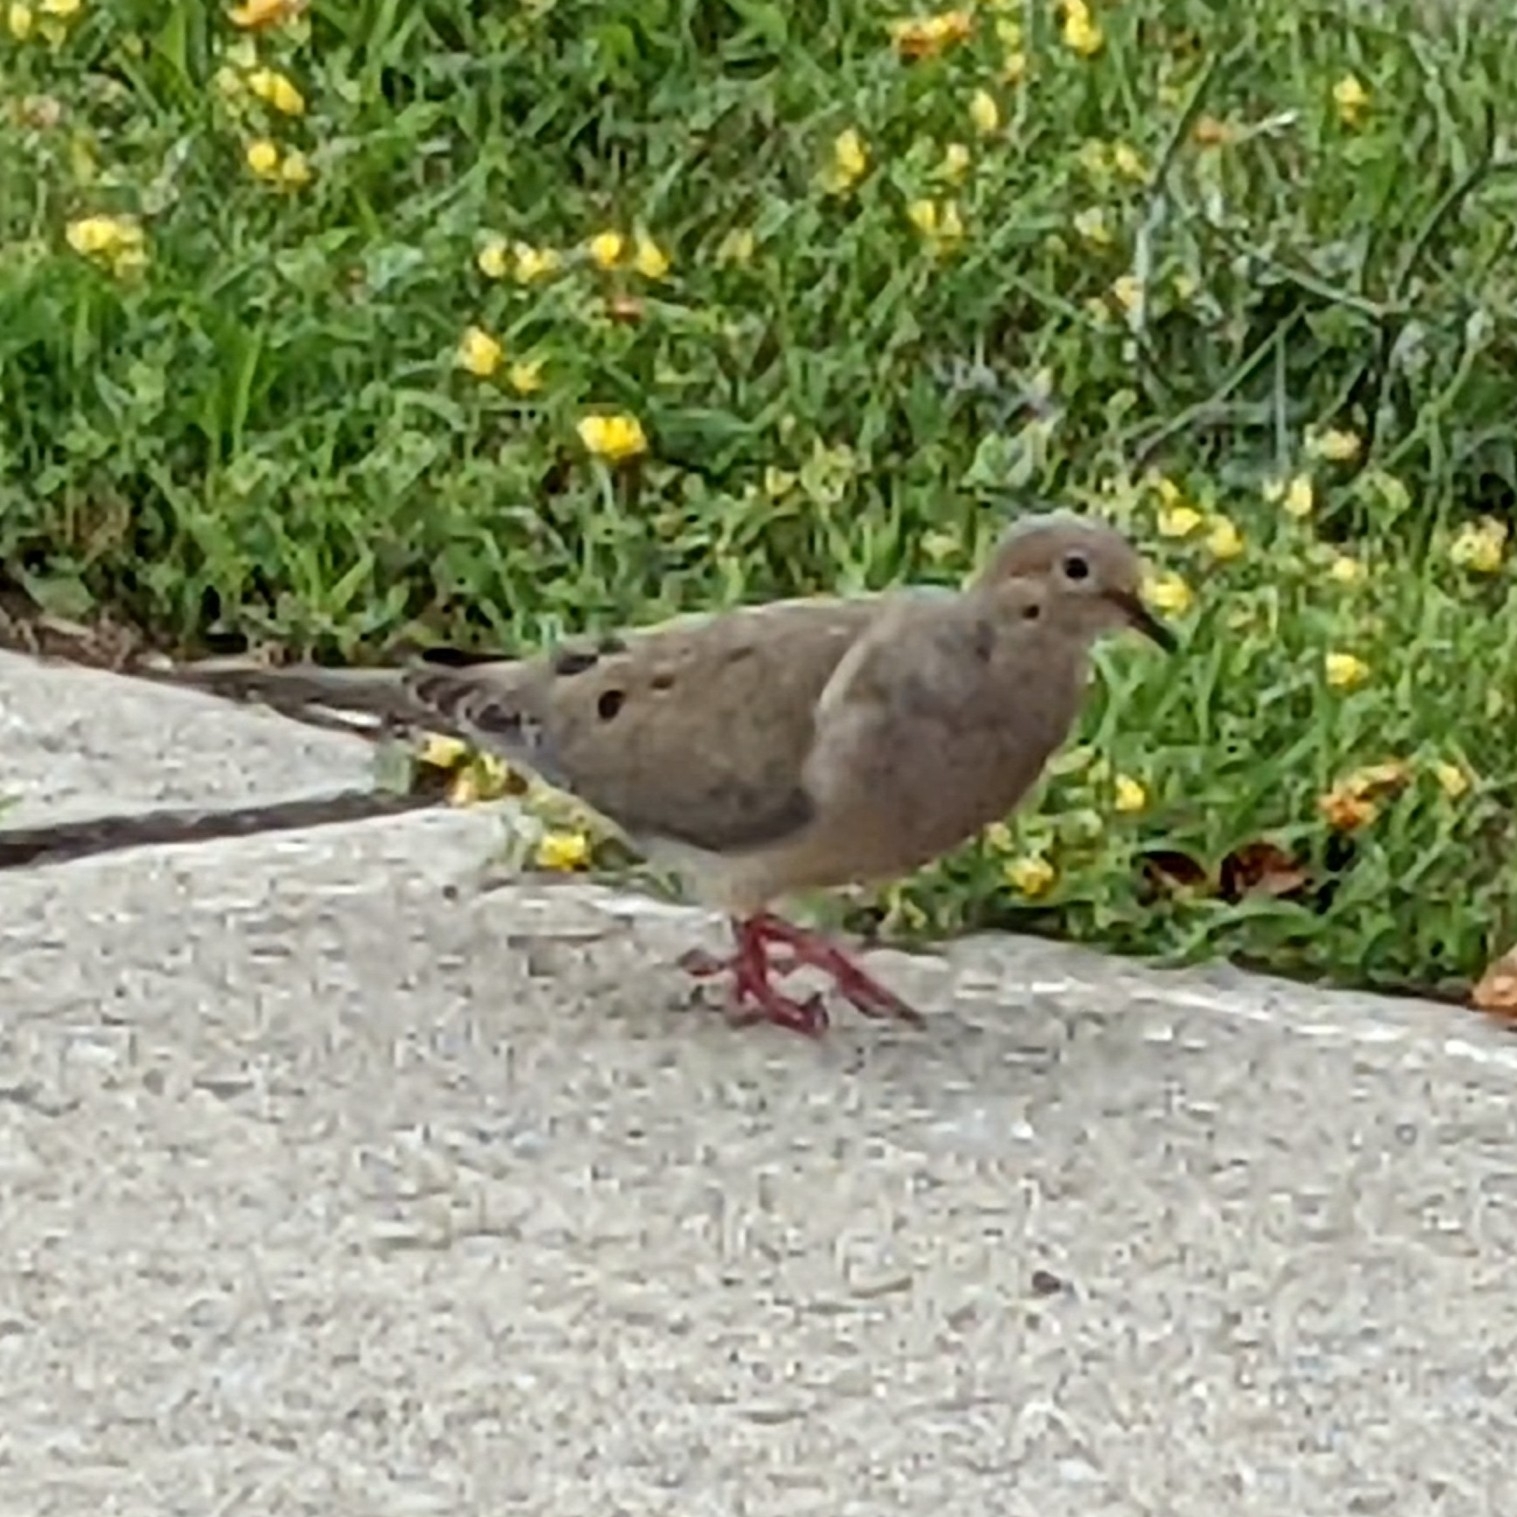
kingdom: Animalia
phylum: Chordata
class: Aves
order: Columbiformes
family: Columbidae
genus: Zenaida
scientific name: Zenaida macroura
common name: Mourning dove
